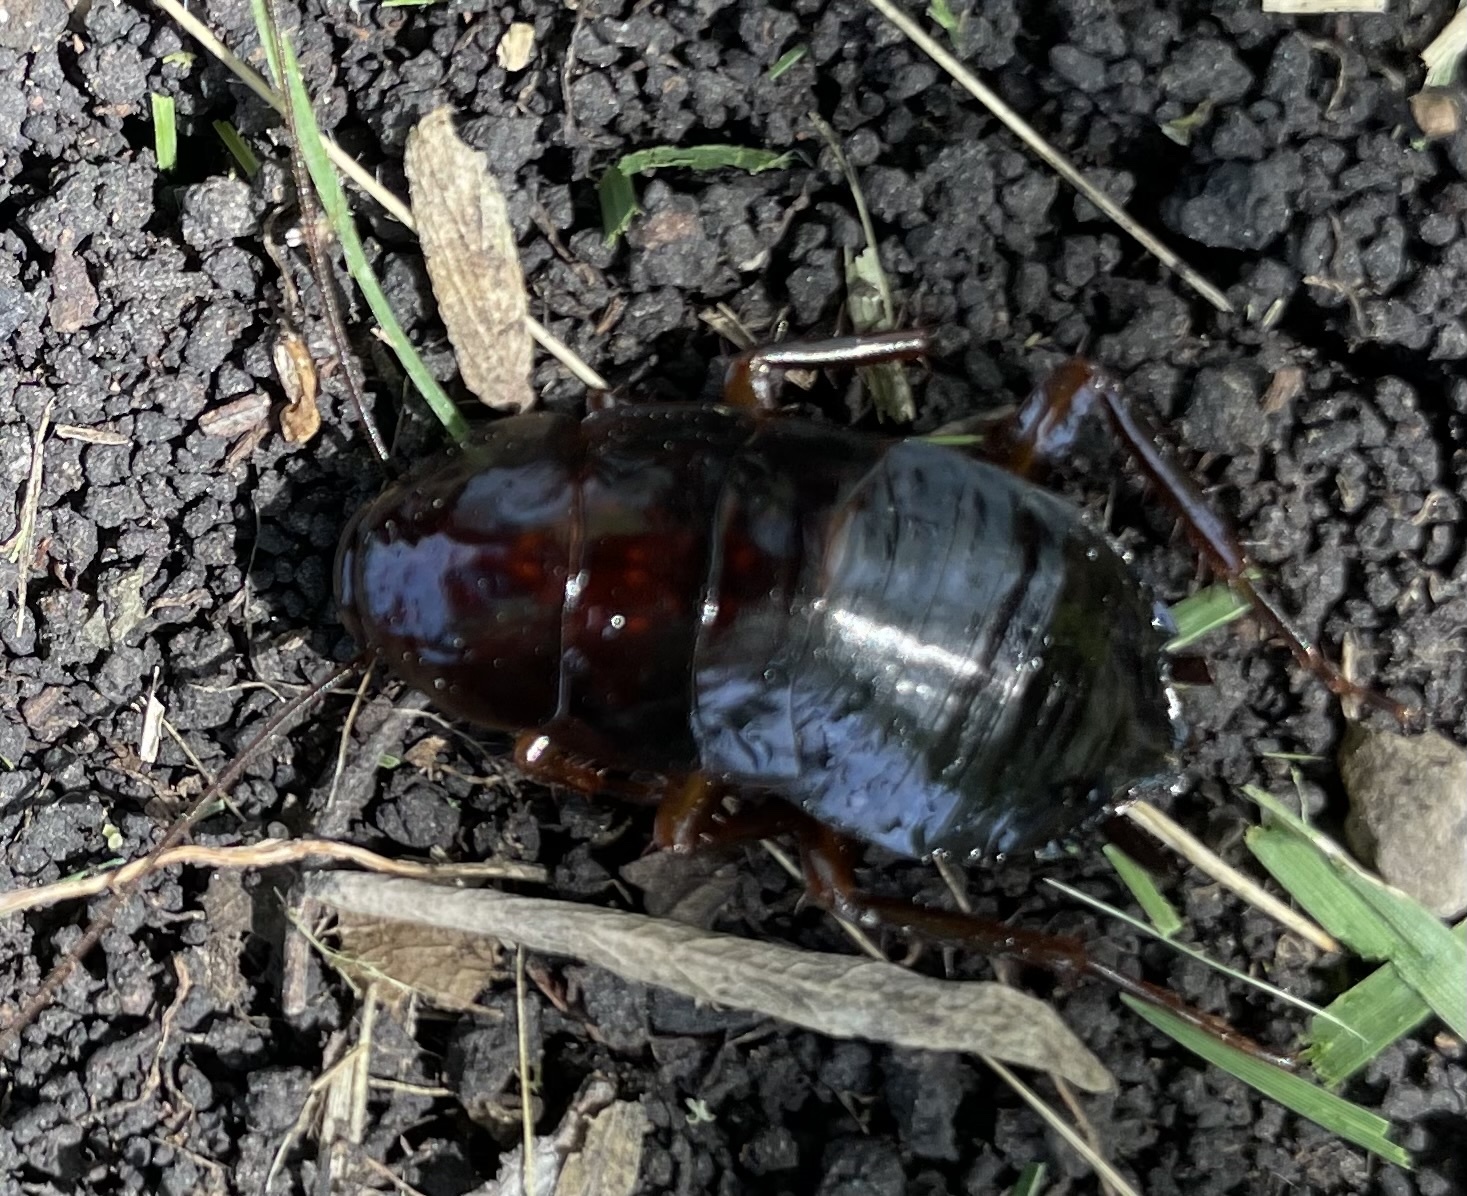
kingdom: Animalia
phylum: Arthropoda
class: Insecta
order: Blattodea
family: Blattidae
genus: Blatta
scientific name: Blatta orientalis
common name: Oriental cockroach
